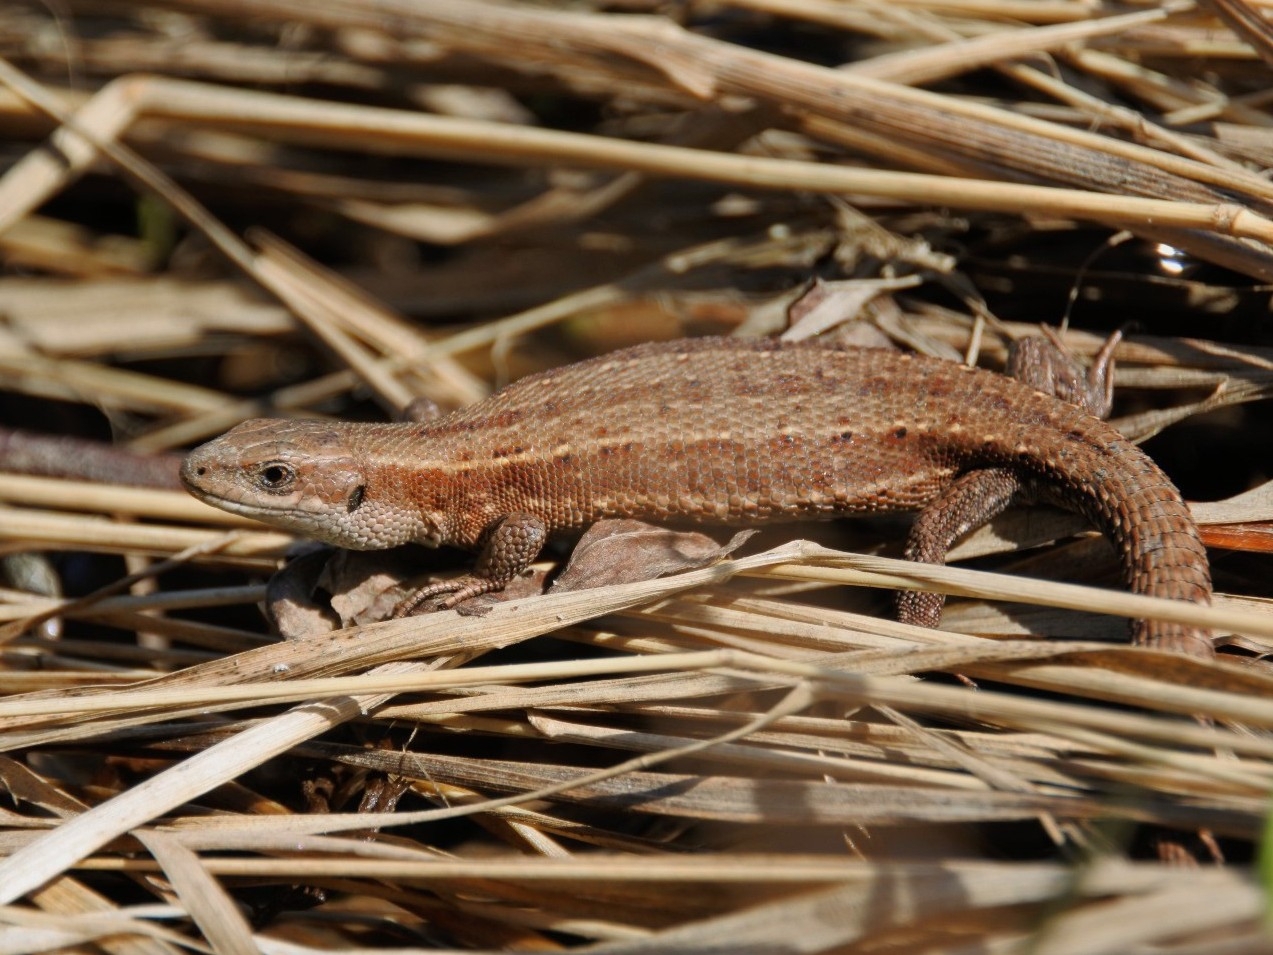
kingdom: Animalia
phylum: Chordata
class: Squamata
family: Lacertidae
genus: Zootoca
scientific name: Zootoca vivipara
